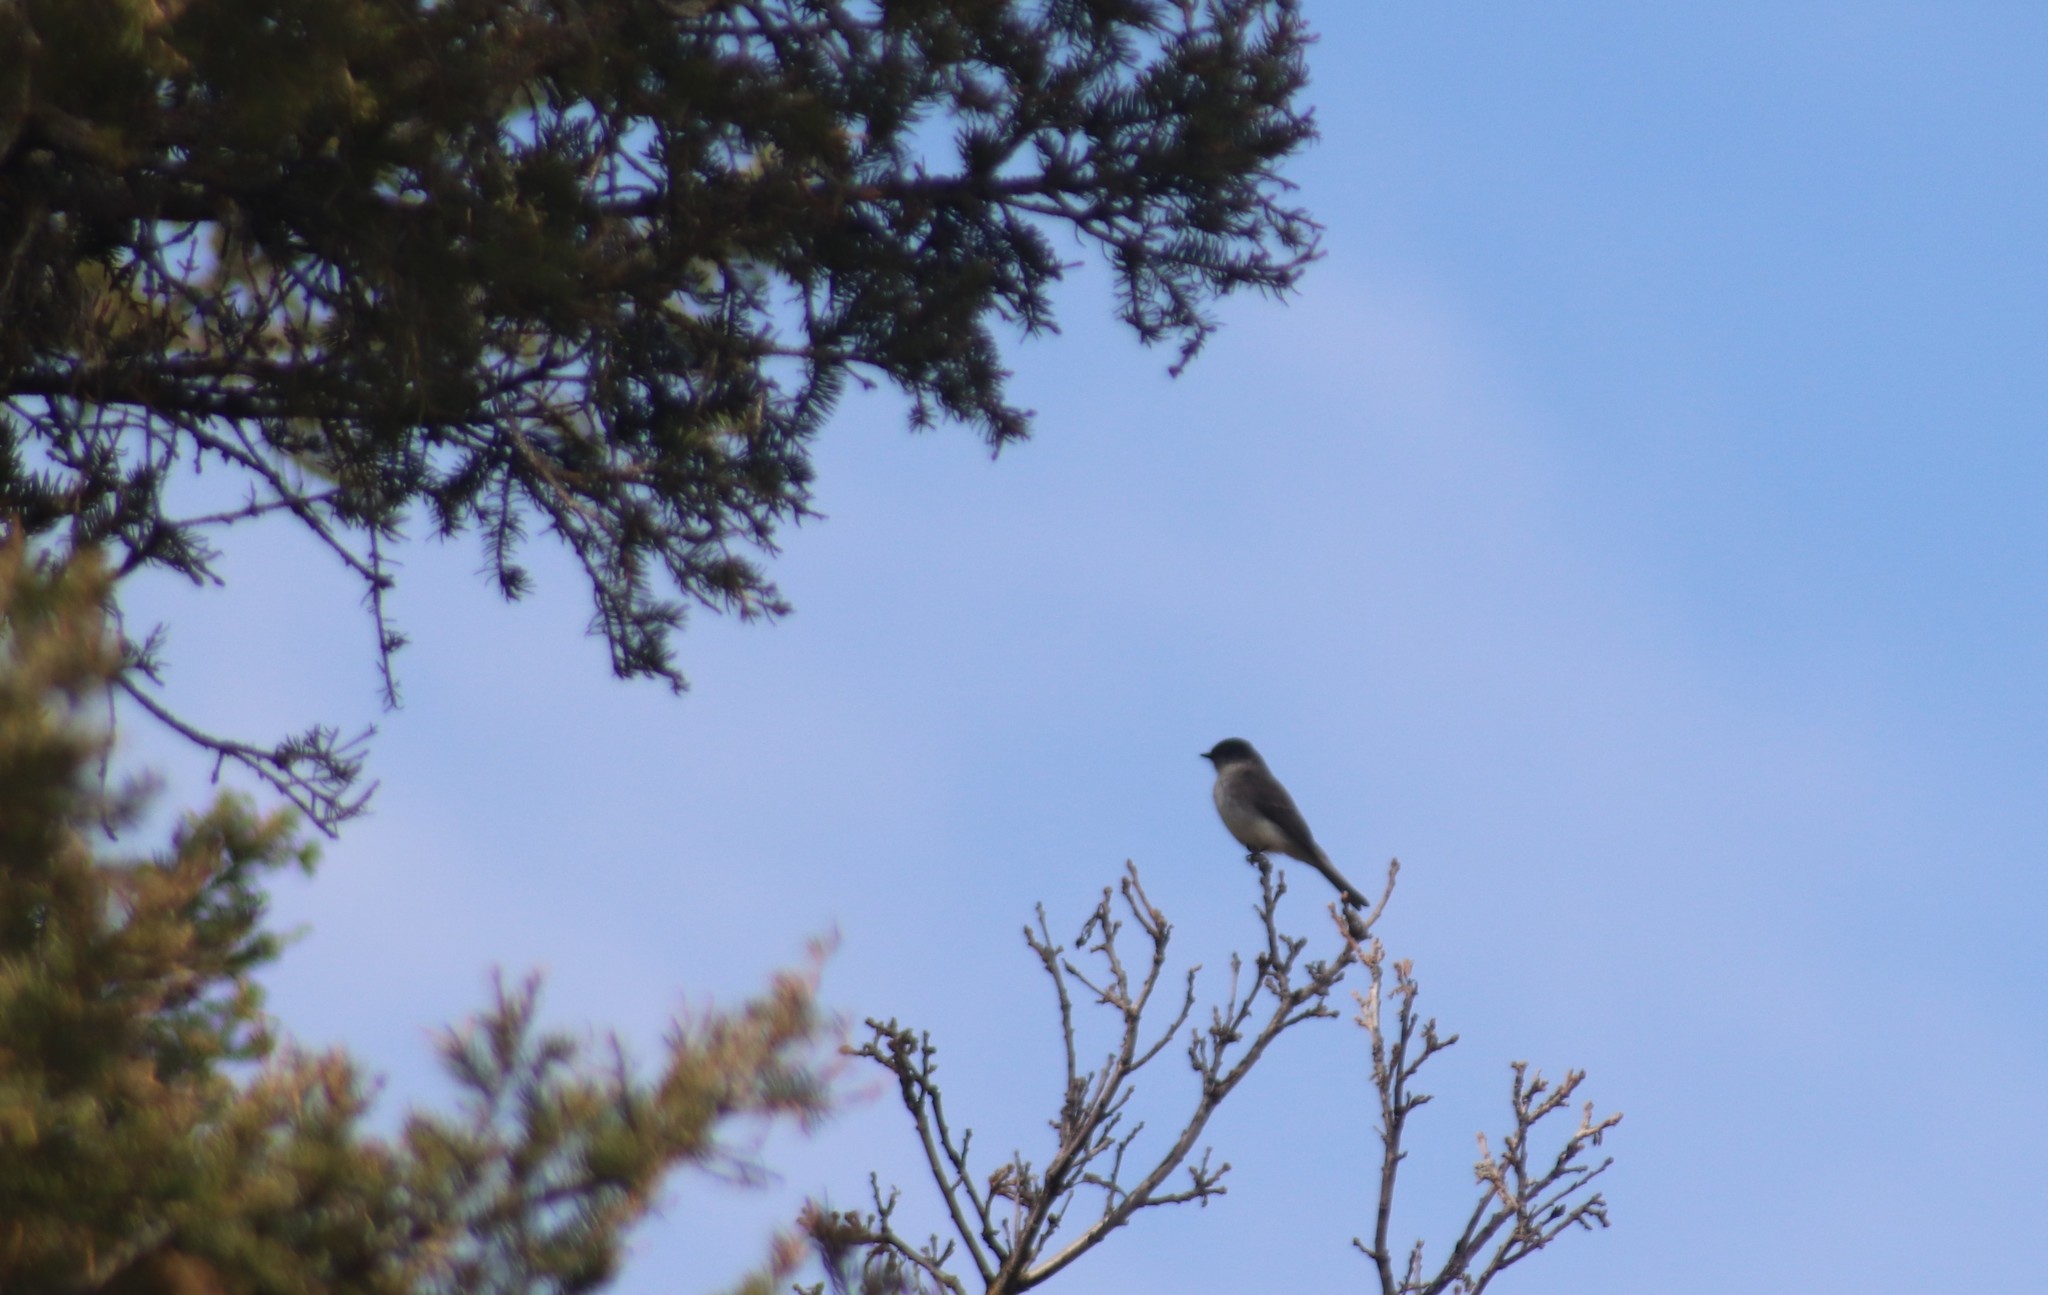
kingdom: Animalia
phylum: Chordata
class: Aves
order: Passeriformes
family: Tyrannidae
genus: Sayornis
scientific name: Sayornis phoebe
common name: Eastern phoebe
